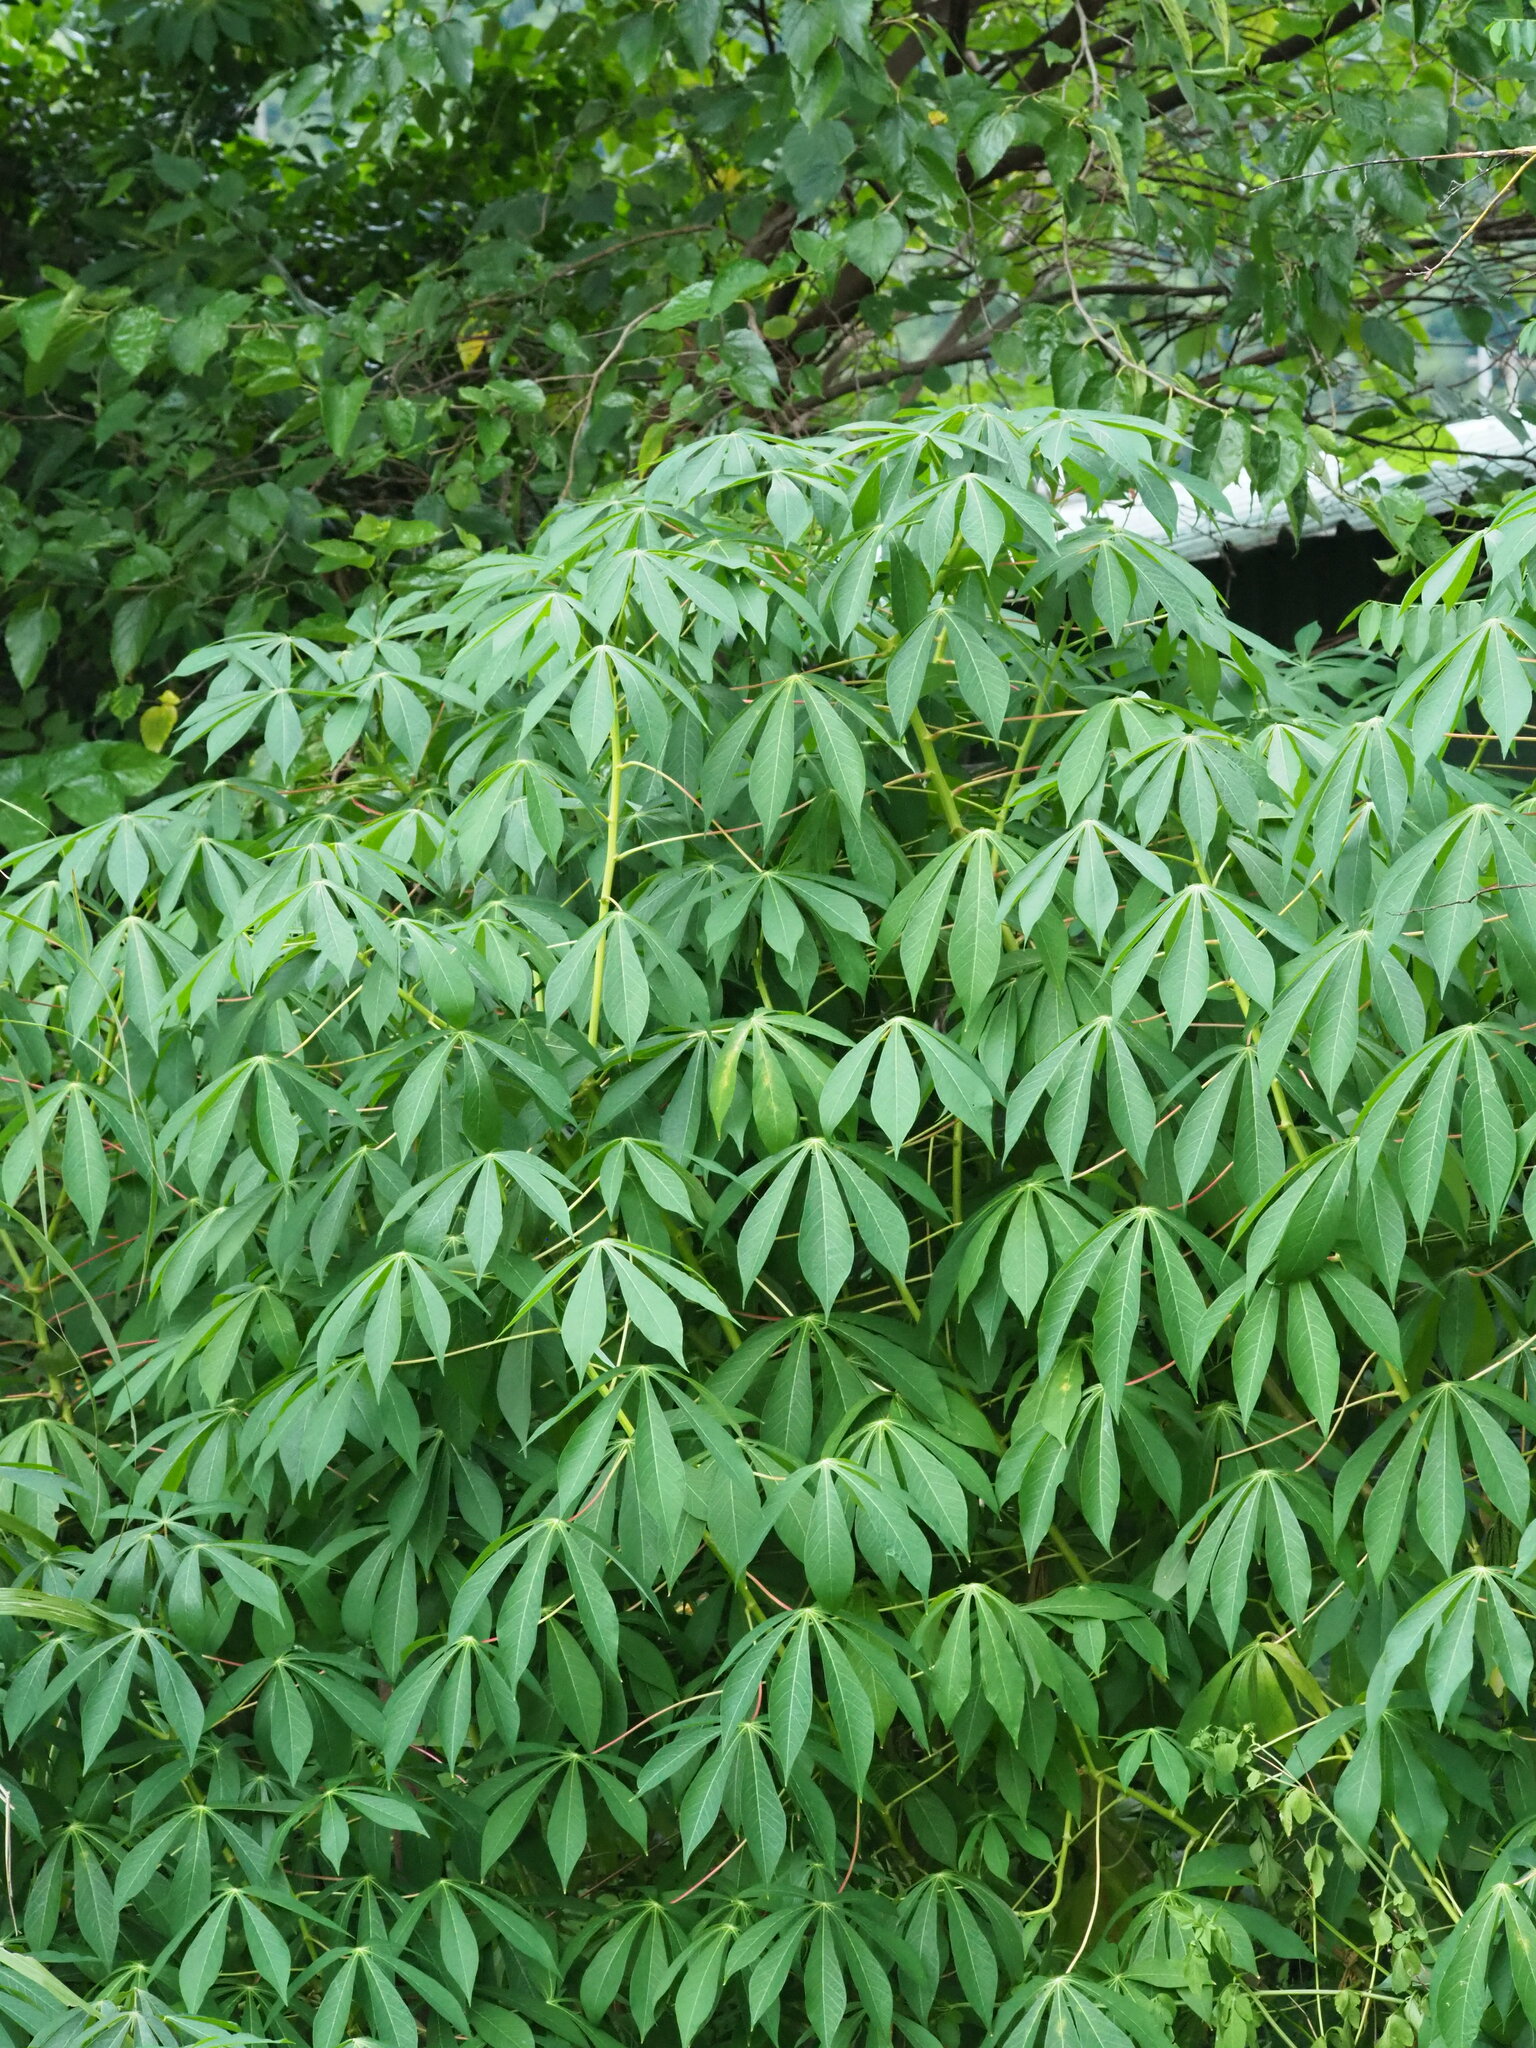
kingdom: Plantae
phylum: Tracheophyta
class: Magnoliopsida
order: Malpighiales
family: Euphorbiaceae
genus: Manihot
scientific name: Manihot esculenta
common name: Cassava
